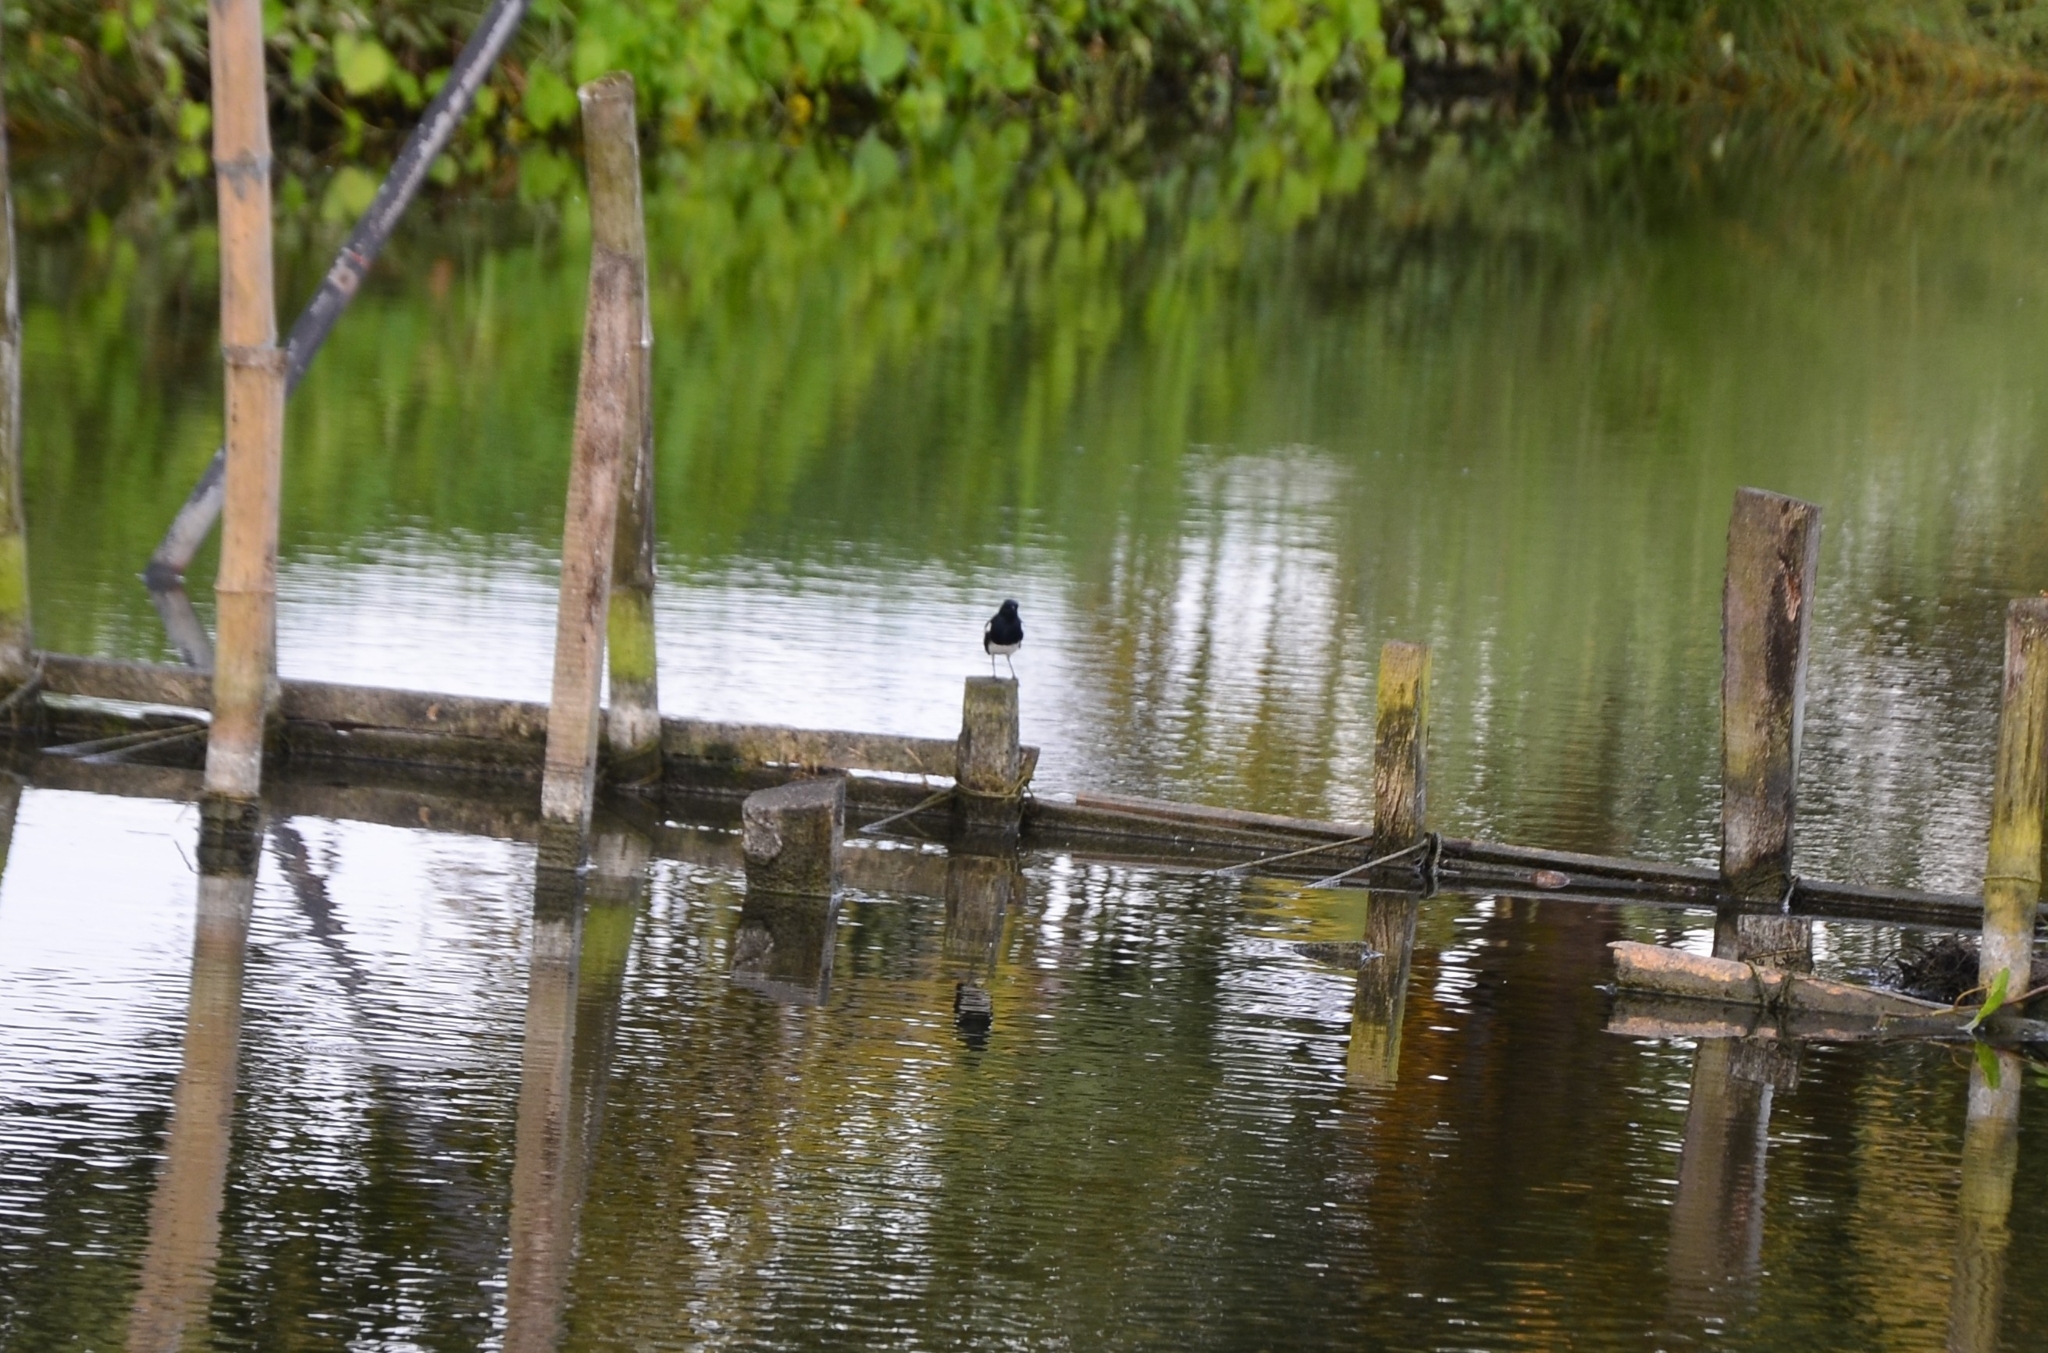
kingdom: Animalia
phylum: Chordata
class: Aves
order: Passeriformes
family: Muscicapidae
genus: Copsychus
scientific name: Copsychus saularis
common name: Oriental magpie-robin
